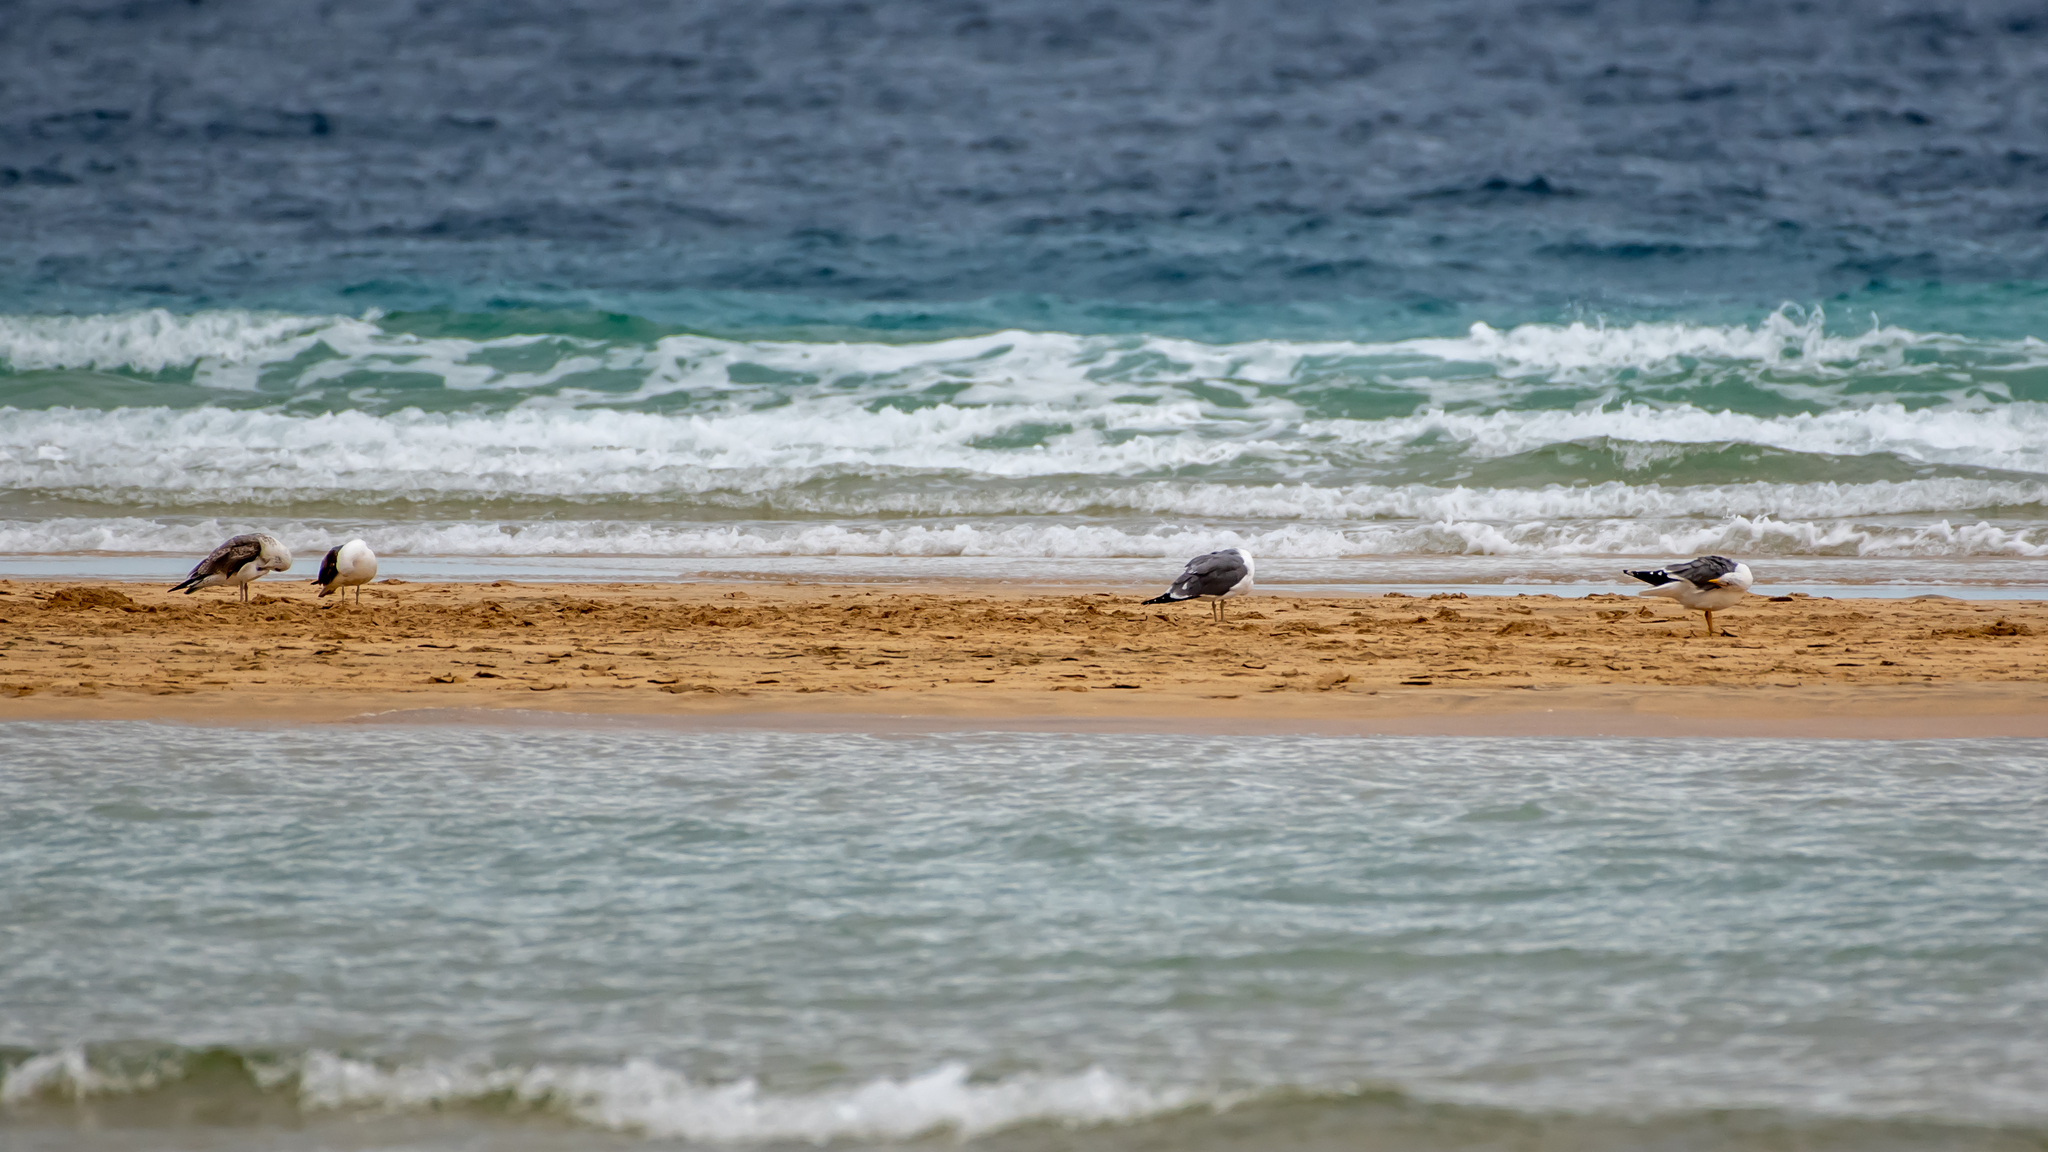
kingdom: Animalia
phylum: Chordata
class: Aves
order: Charadriiformes
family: Laridae
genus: Larus
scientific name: Larus fuscus
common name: Lesser black-backed gull
